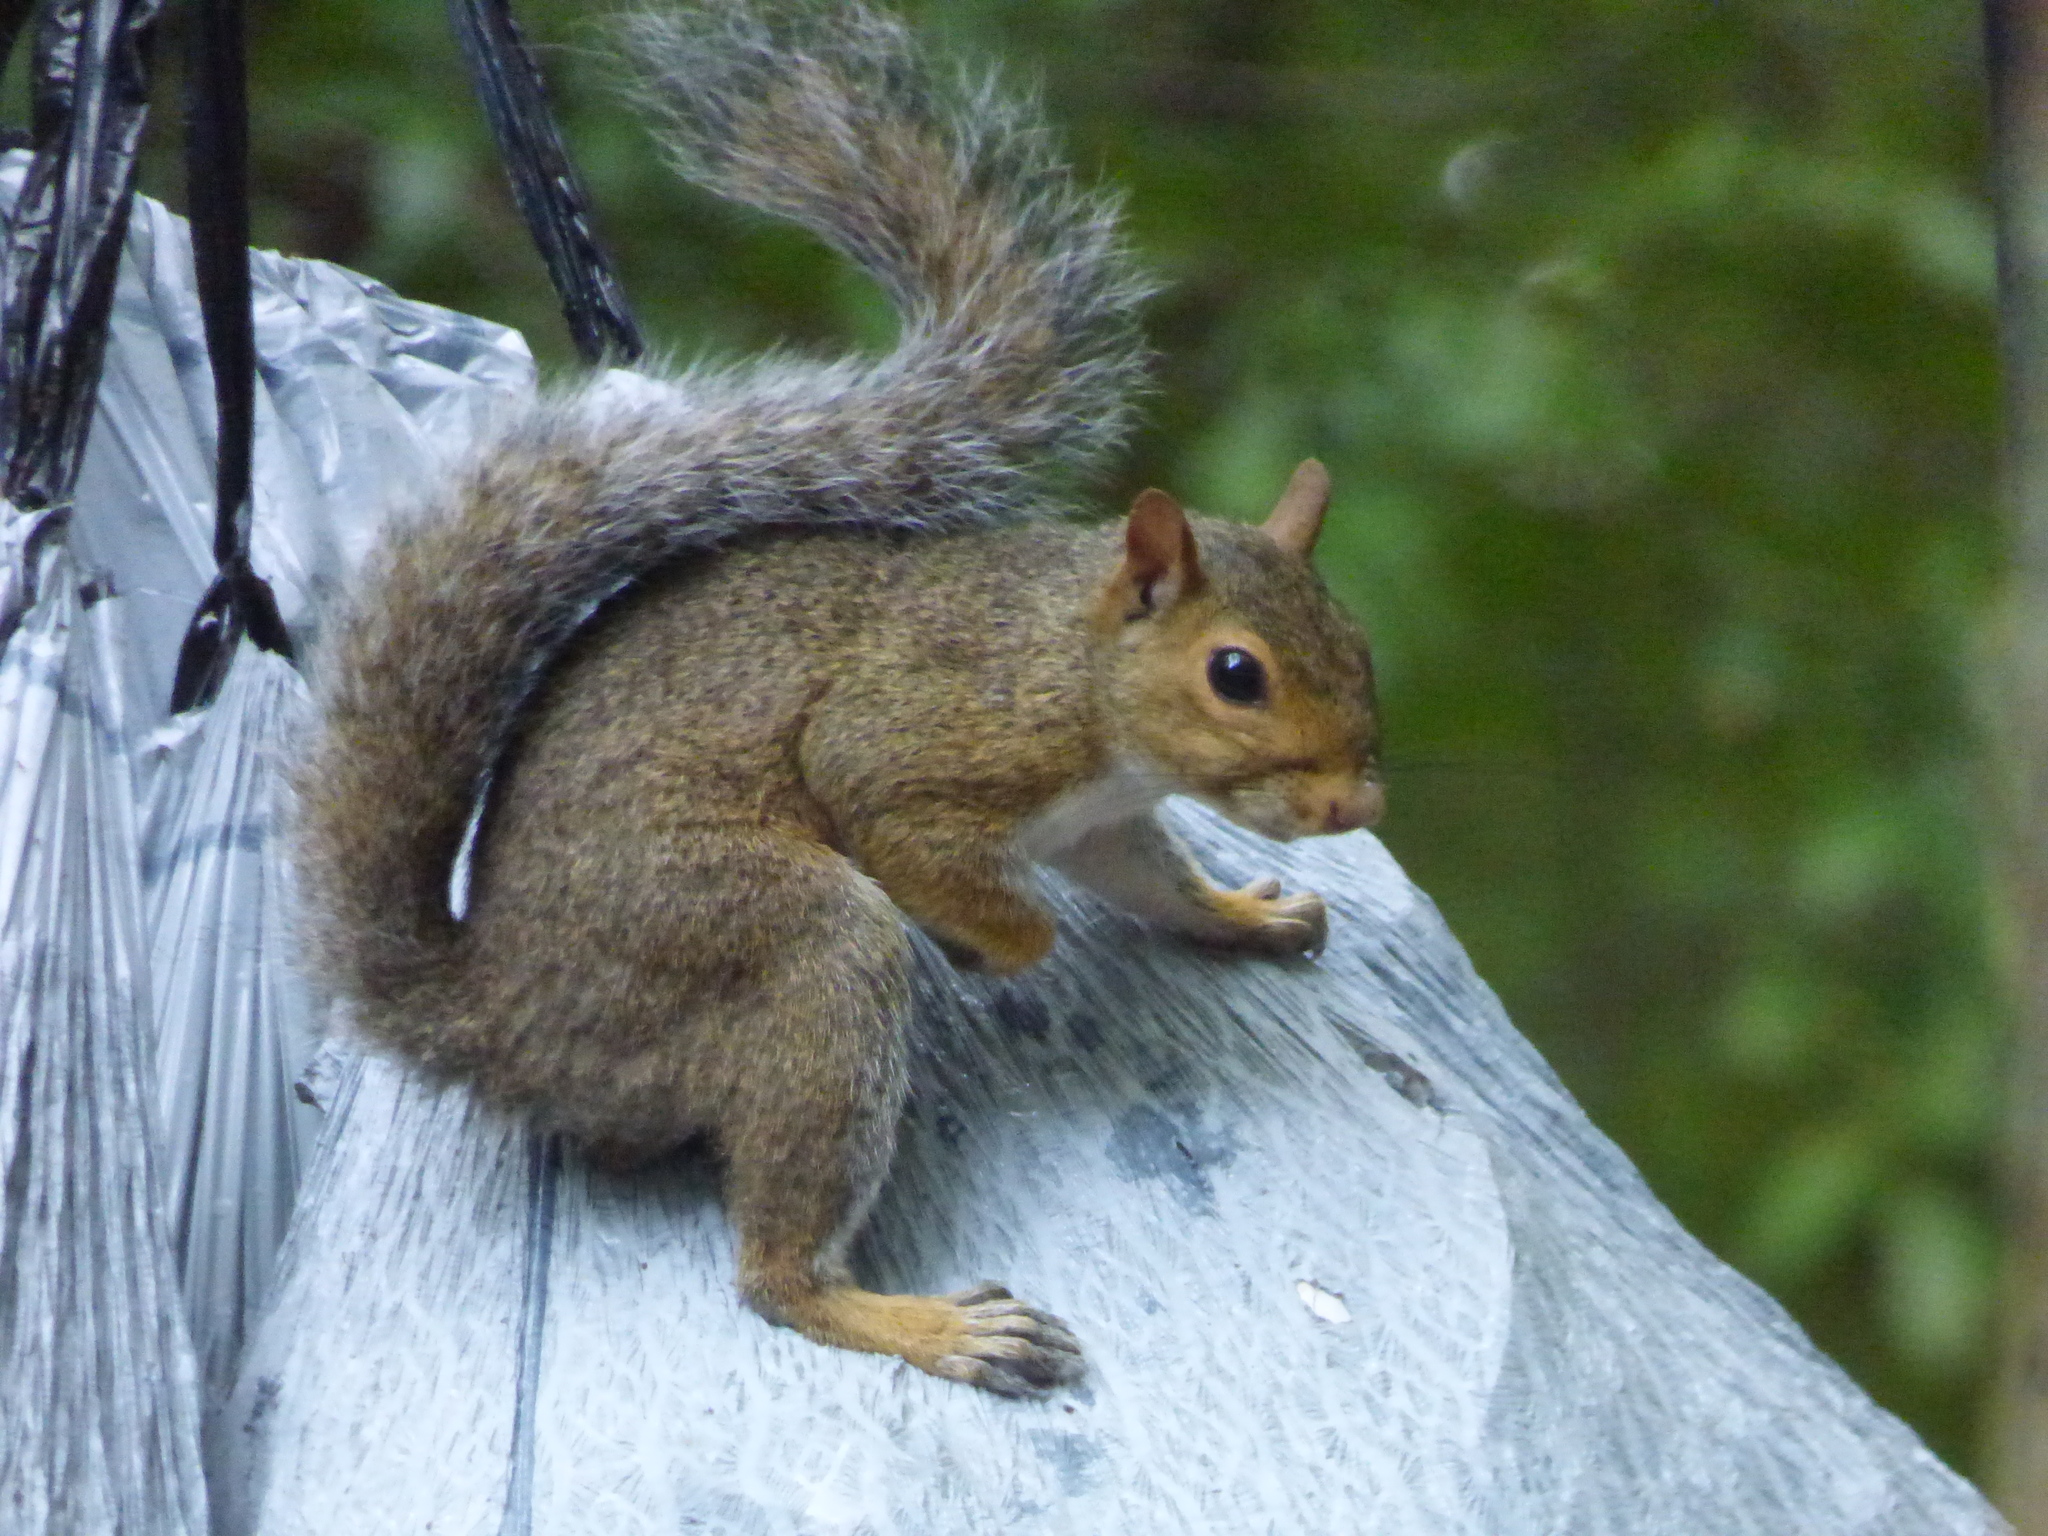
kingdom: Animalia
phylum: Chordata
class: Mammalia
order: Rodentia
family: Sciuridae
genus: Sciurus
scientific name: Sciurus carolinensis
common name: Eastern gray squirrel
